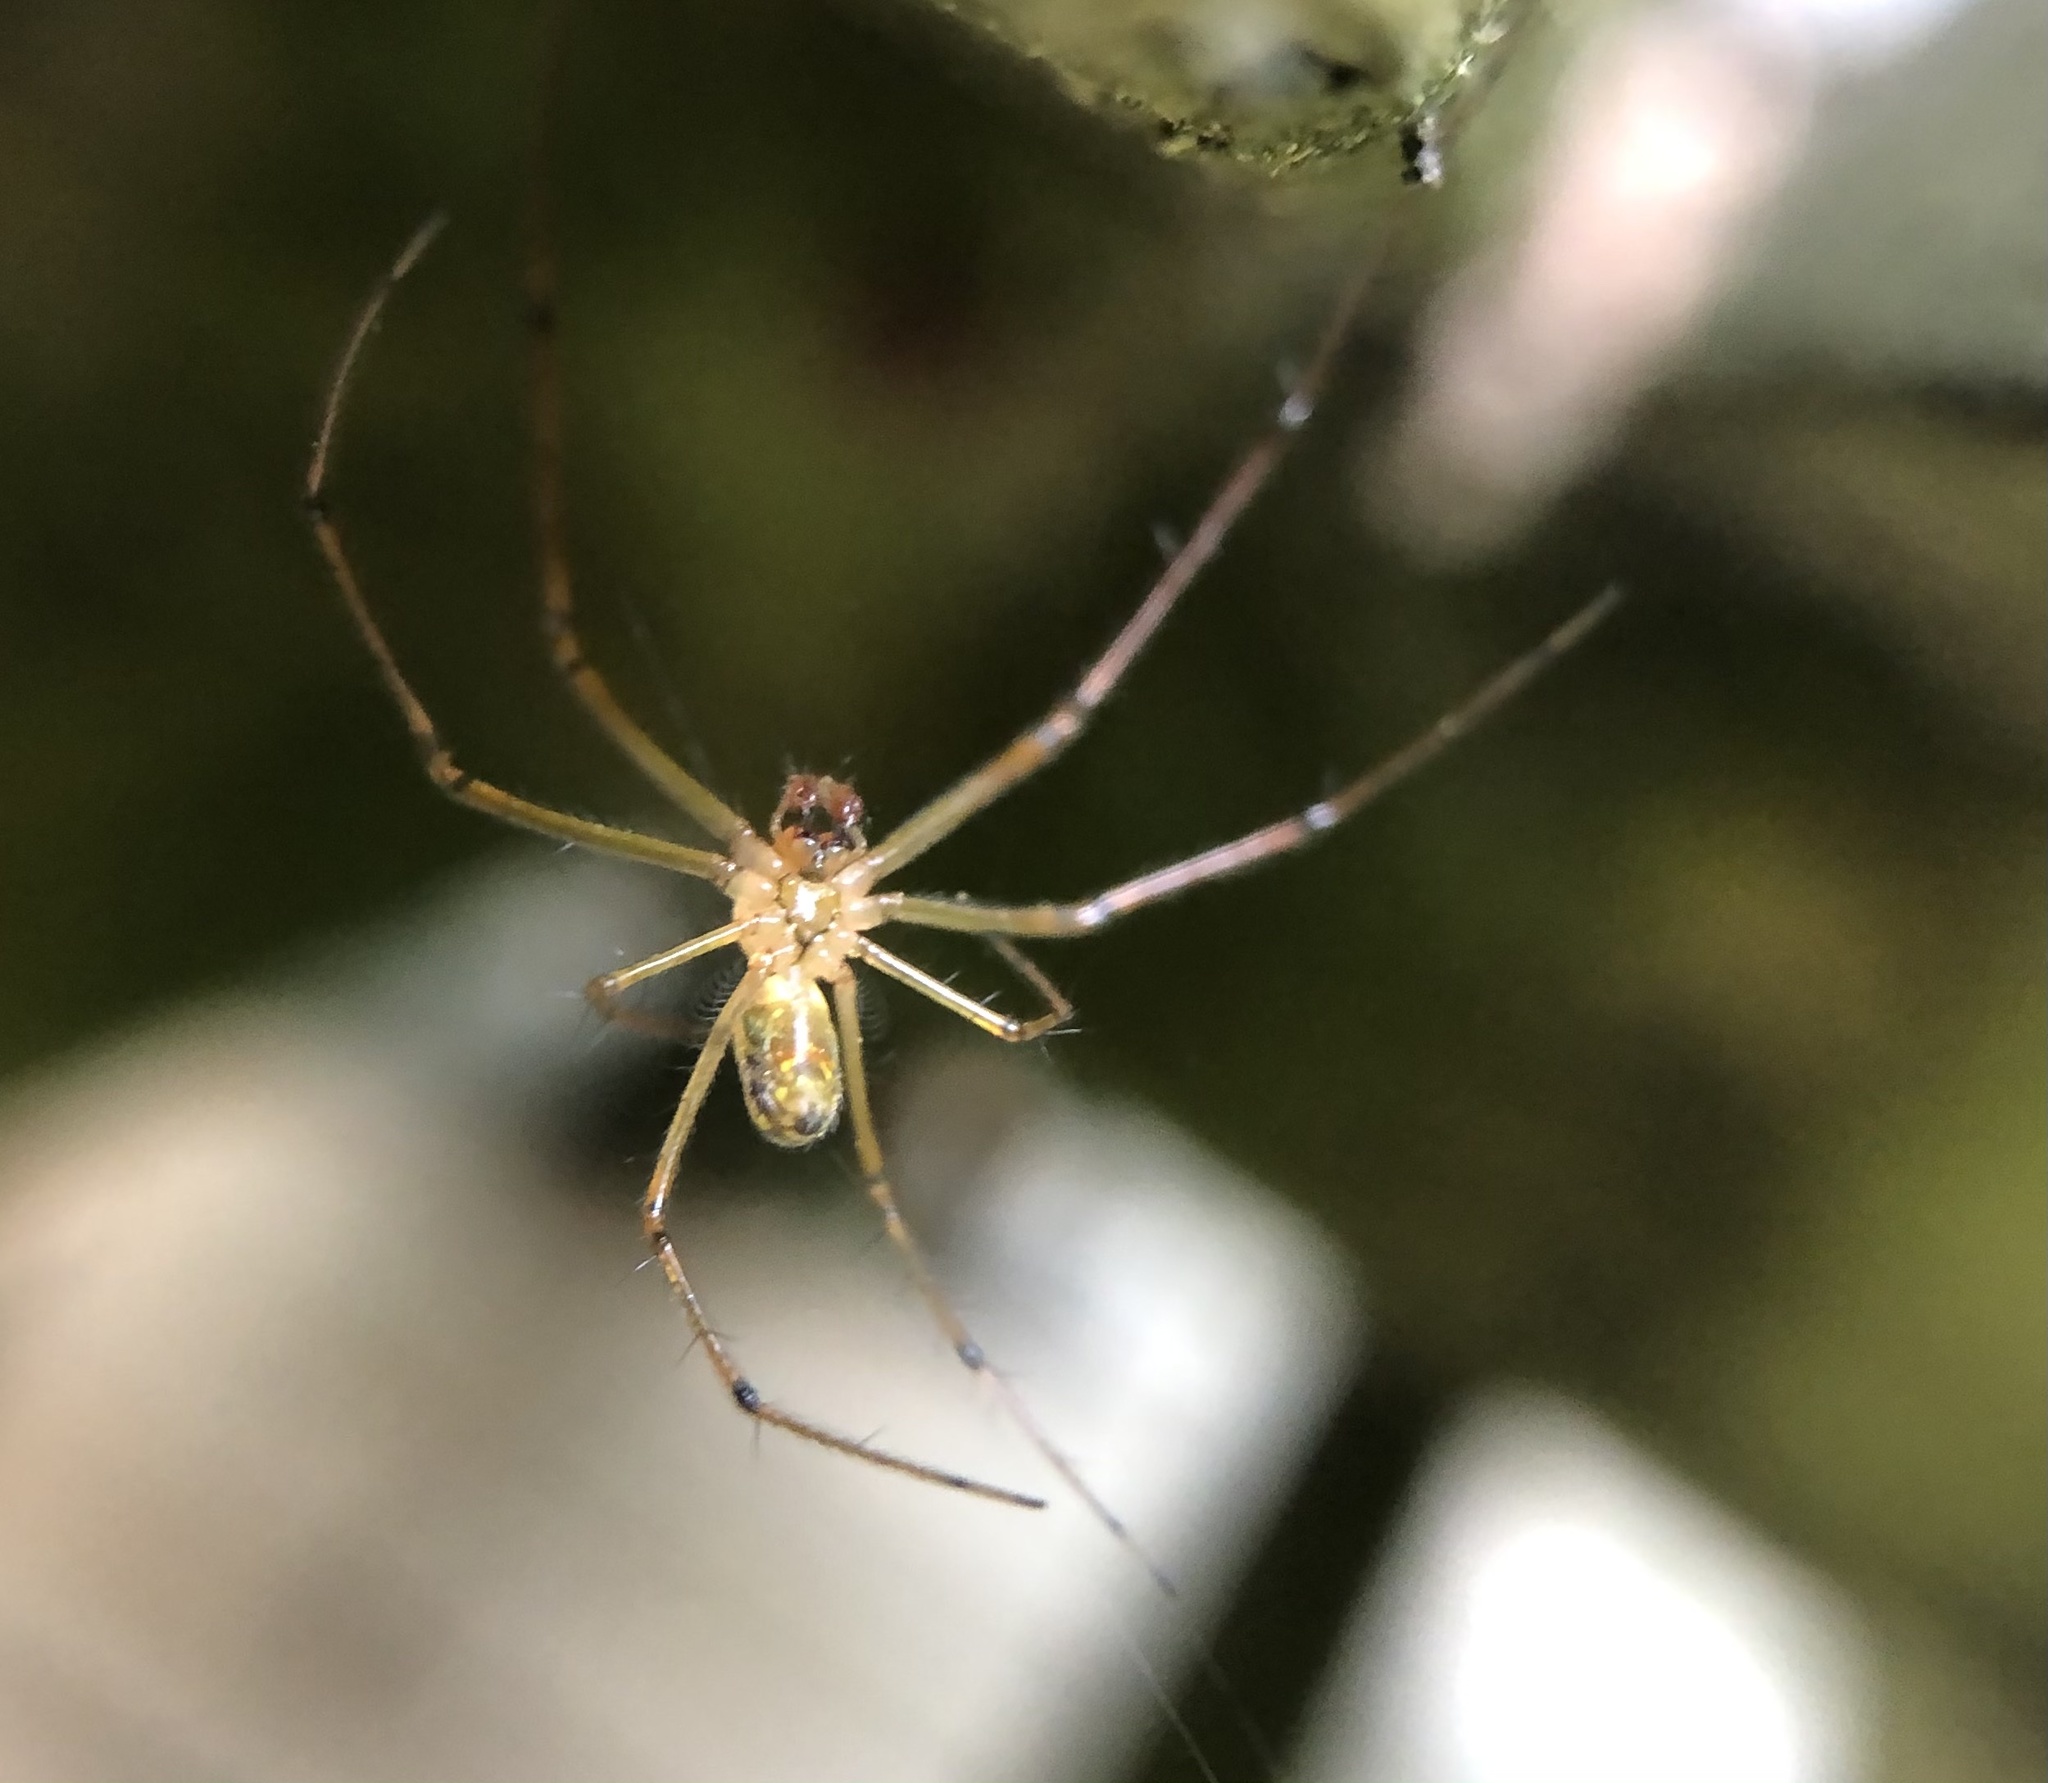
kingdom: Animalia
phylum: Arthropoda
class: Arachnida
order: Araneae
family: Tetragnathidae
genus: Leucauge
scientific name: Leucauge venusta
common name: Longjawed orb weavers
